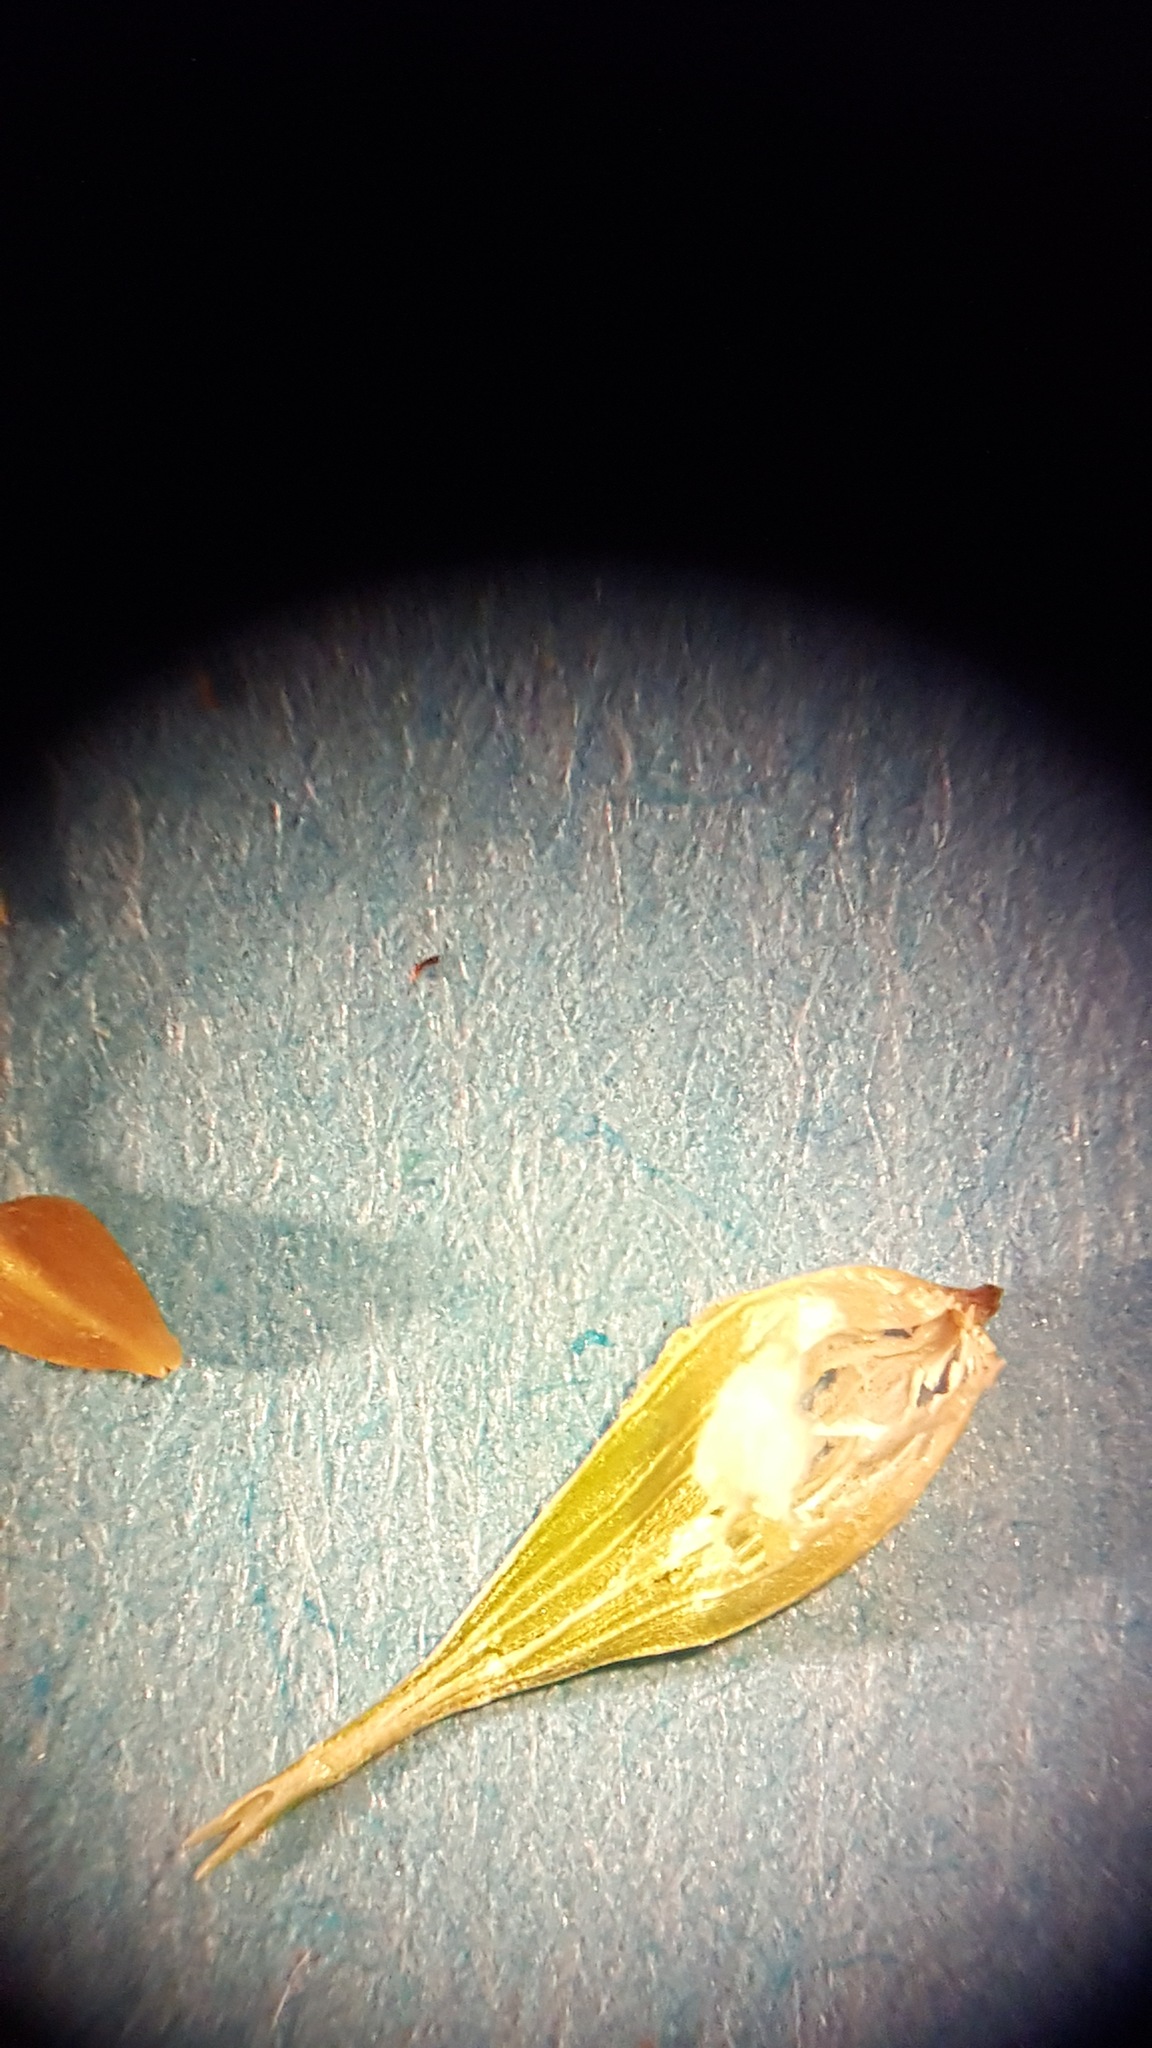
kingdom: Plantae
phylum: Tracheophyta
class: Liliopsida
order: Poales
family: Cyperaceae
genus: Carex
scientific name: Carex hystericina
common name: Bottlebrush sedge
